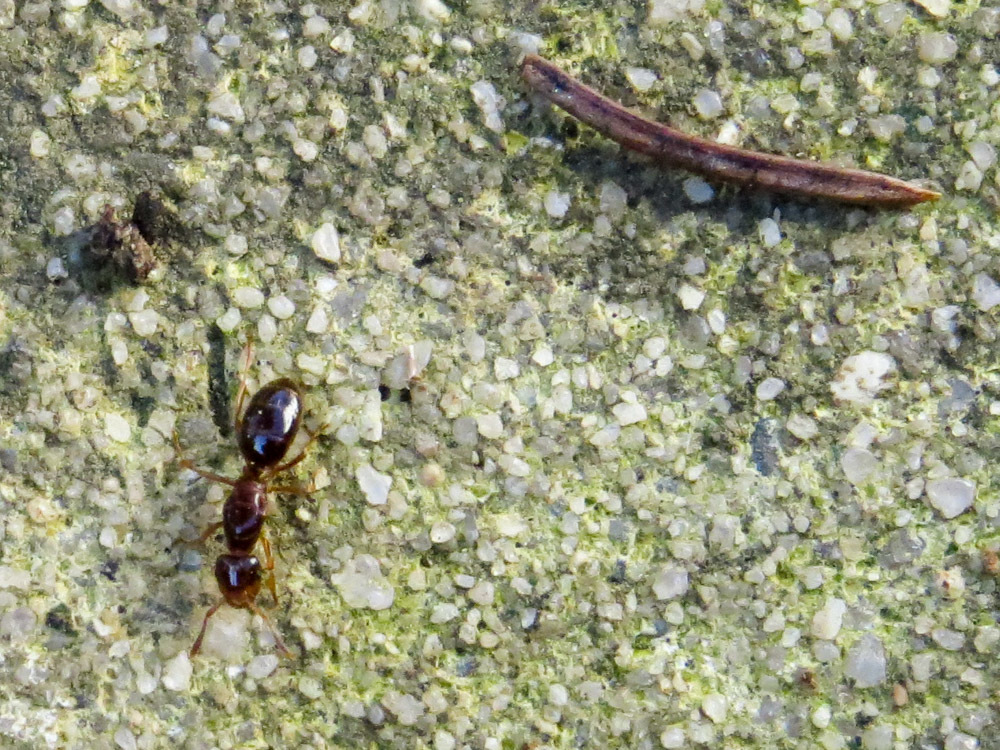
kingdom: Animalia
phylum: Arthropoda
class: Insecta
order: Hymenoptera
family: Formicidae
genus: Lasius
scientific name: Lasius claviger
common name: Common citronella ant
